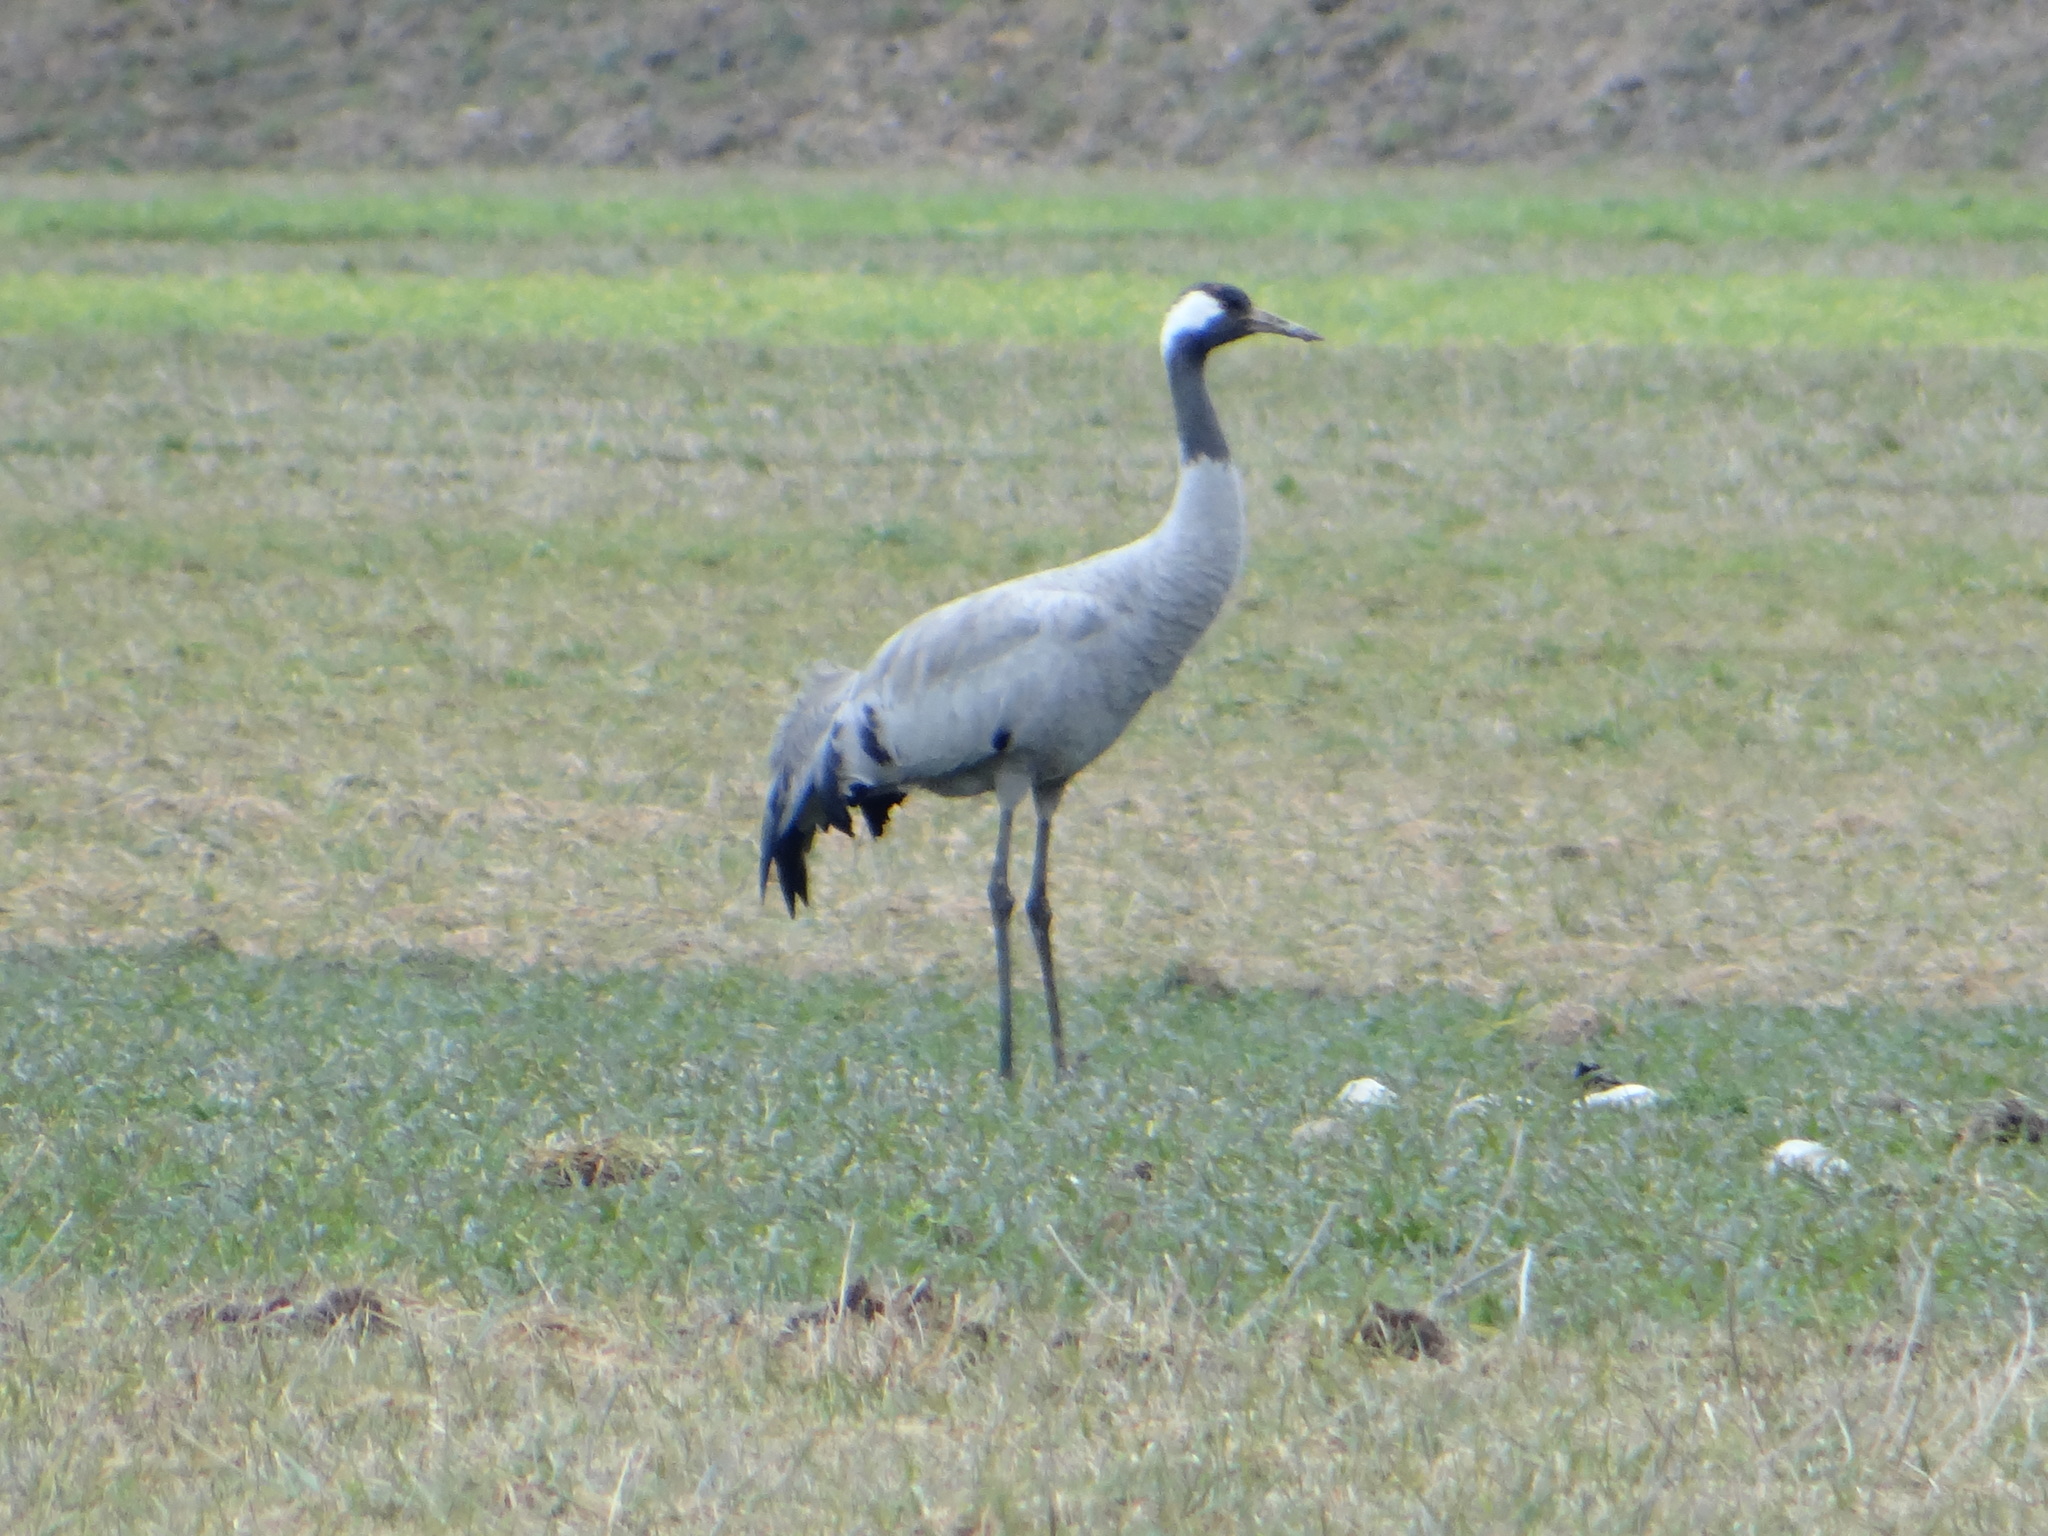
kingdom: Animalia
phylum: Chordata
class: Aves
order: Gruiformes
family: Gruidae
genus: Grus
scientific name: Grus grus
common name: Common crane
